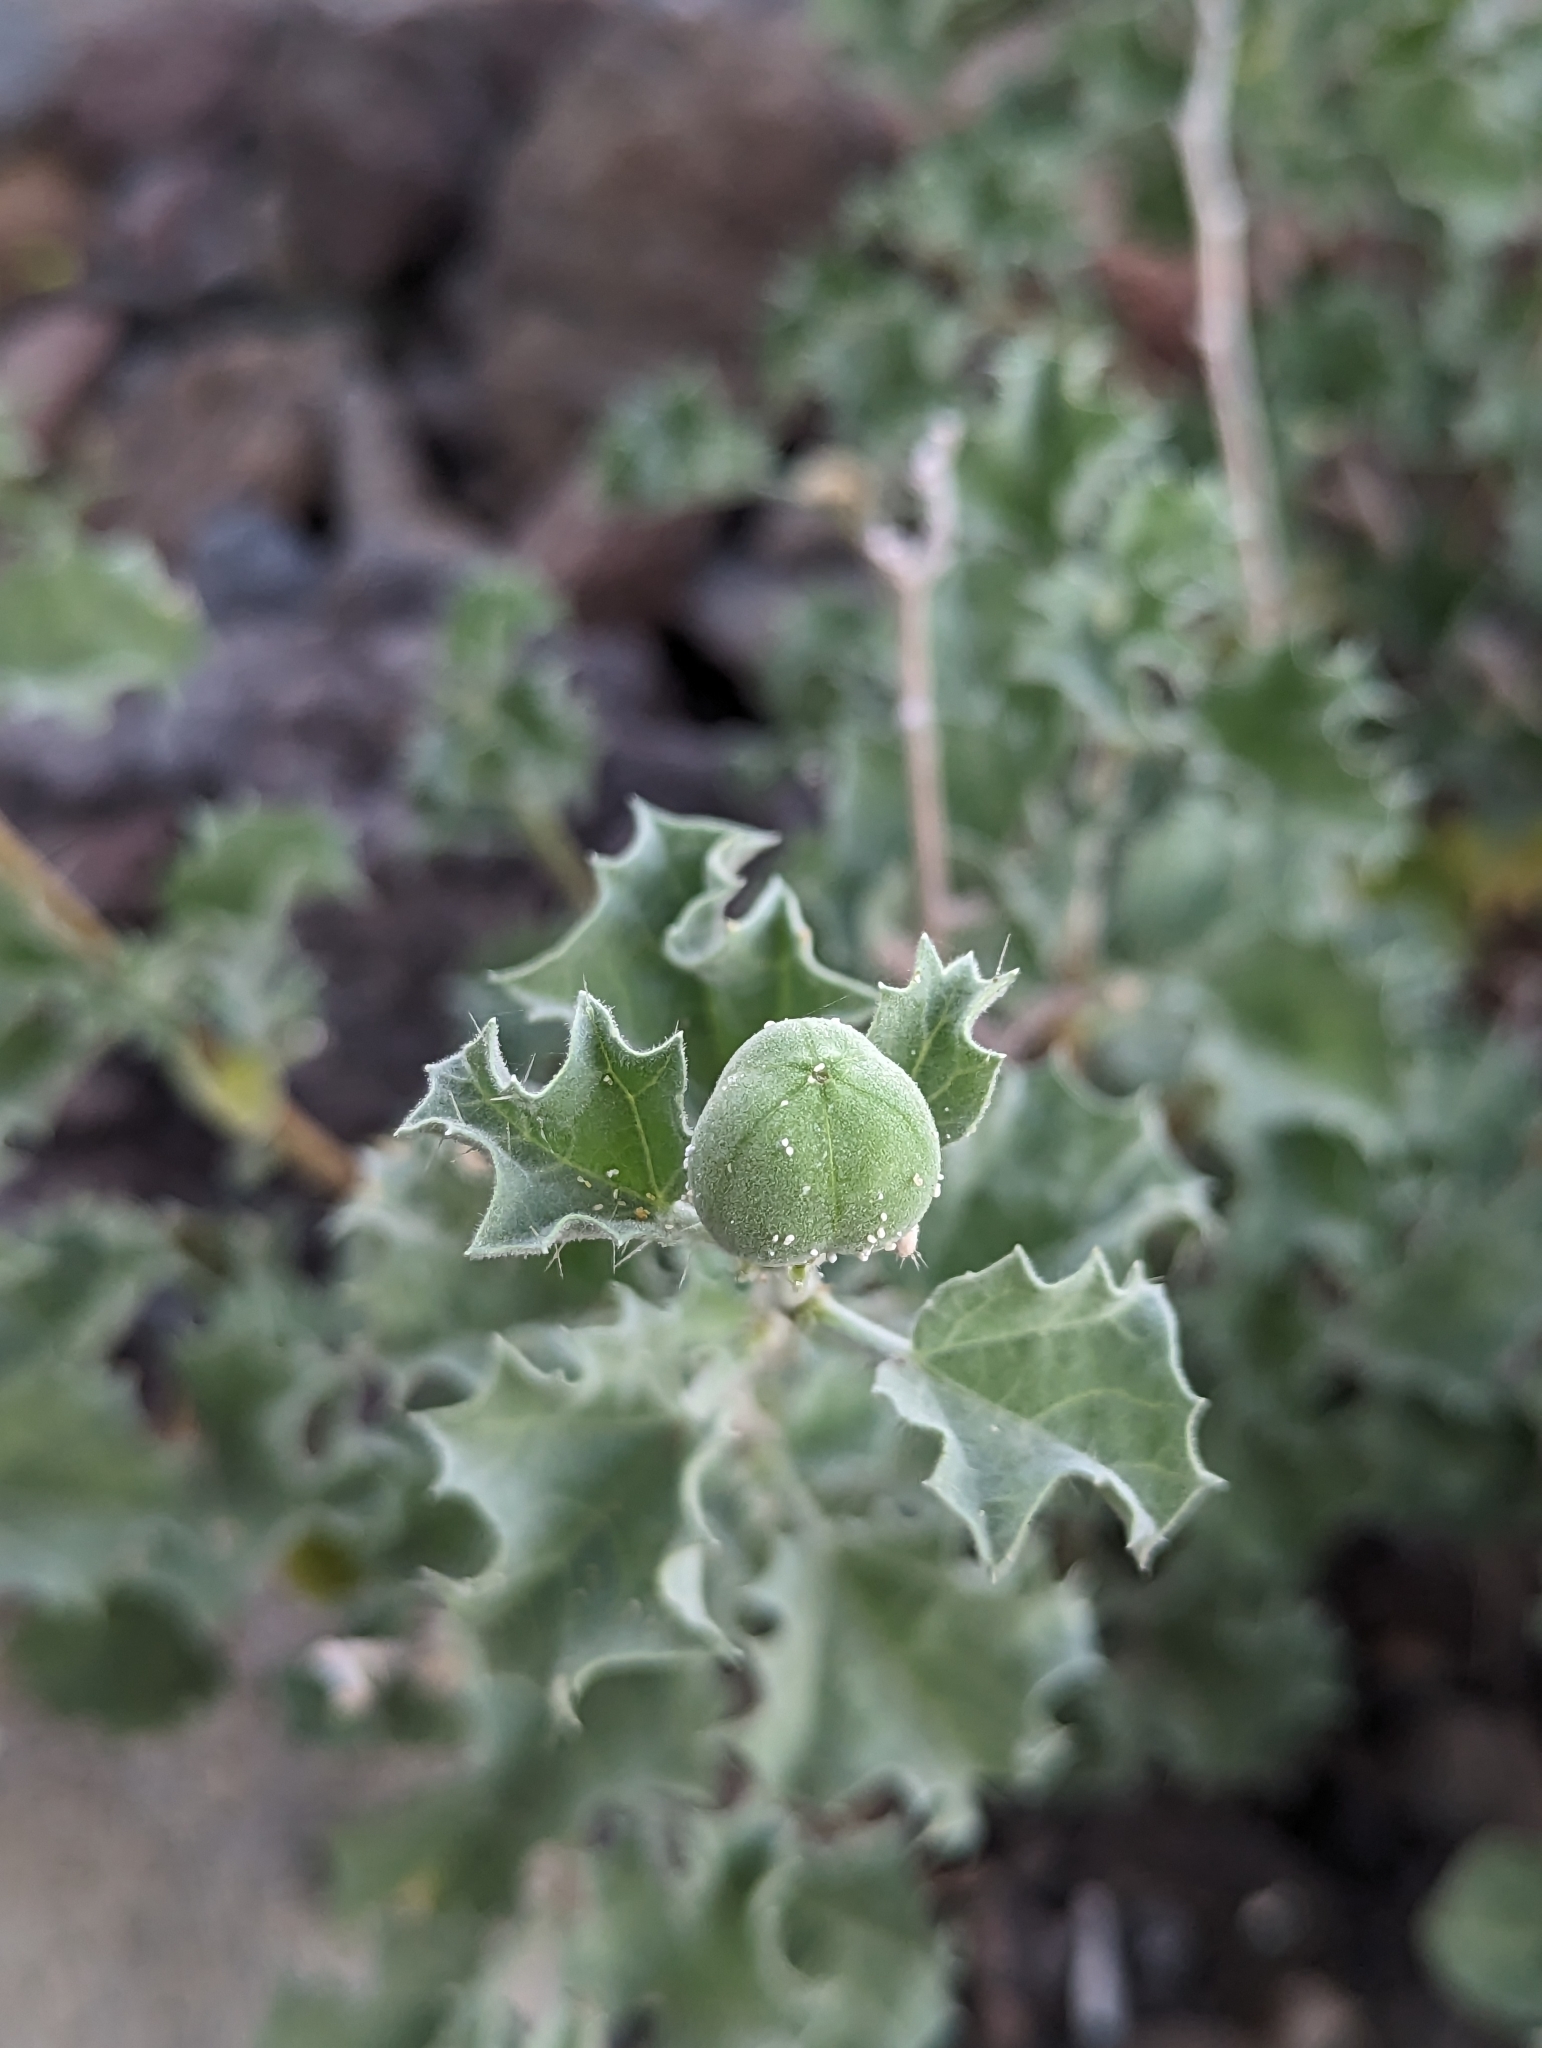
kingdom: Plantae
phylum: Tracheophyta
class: Magnoliopsida
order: Malpighiales
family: Euphorbiaceae
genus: Cnidoscolus
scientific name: Cnidoscolus palmeri
